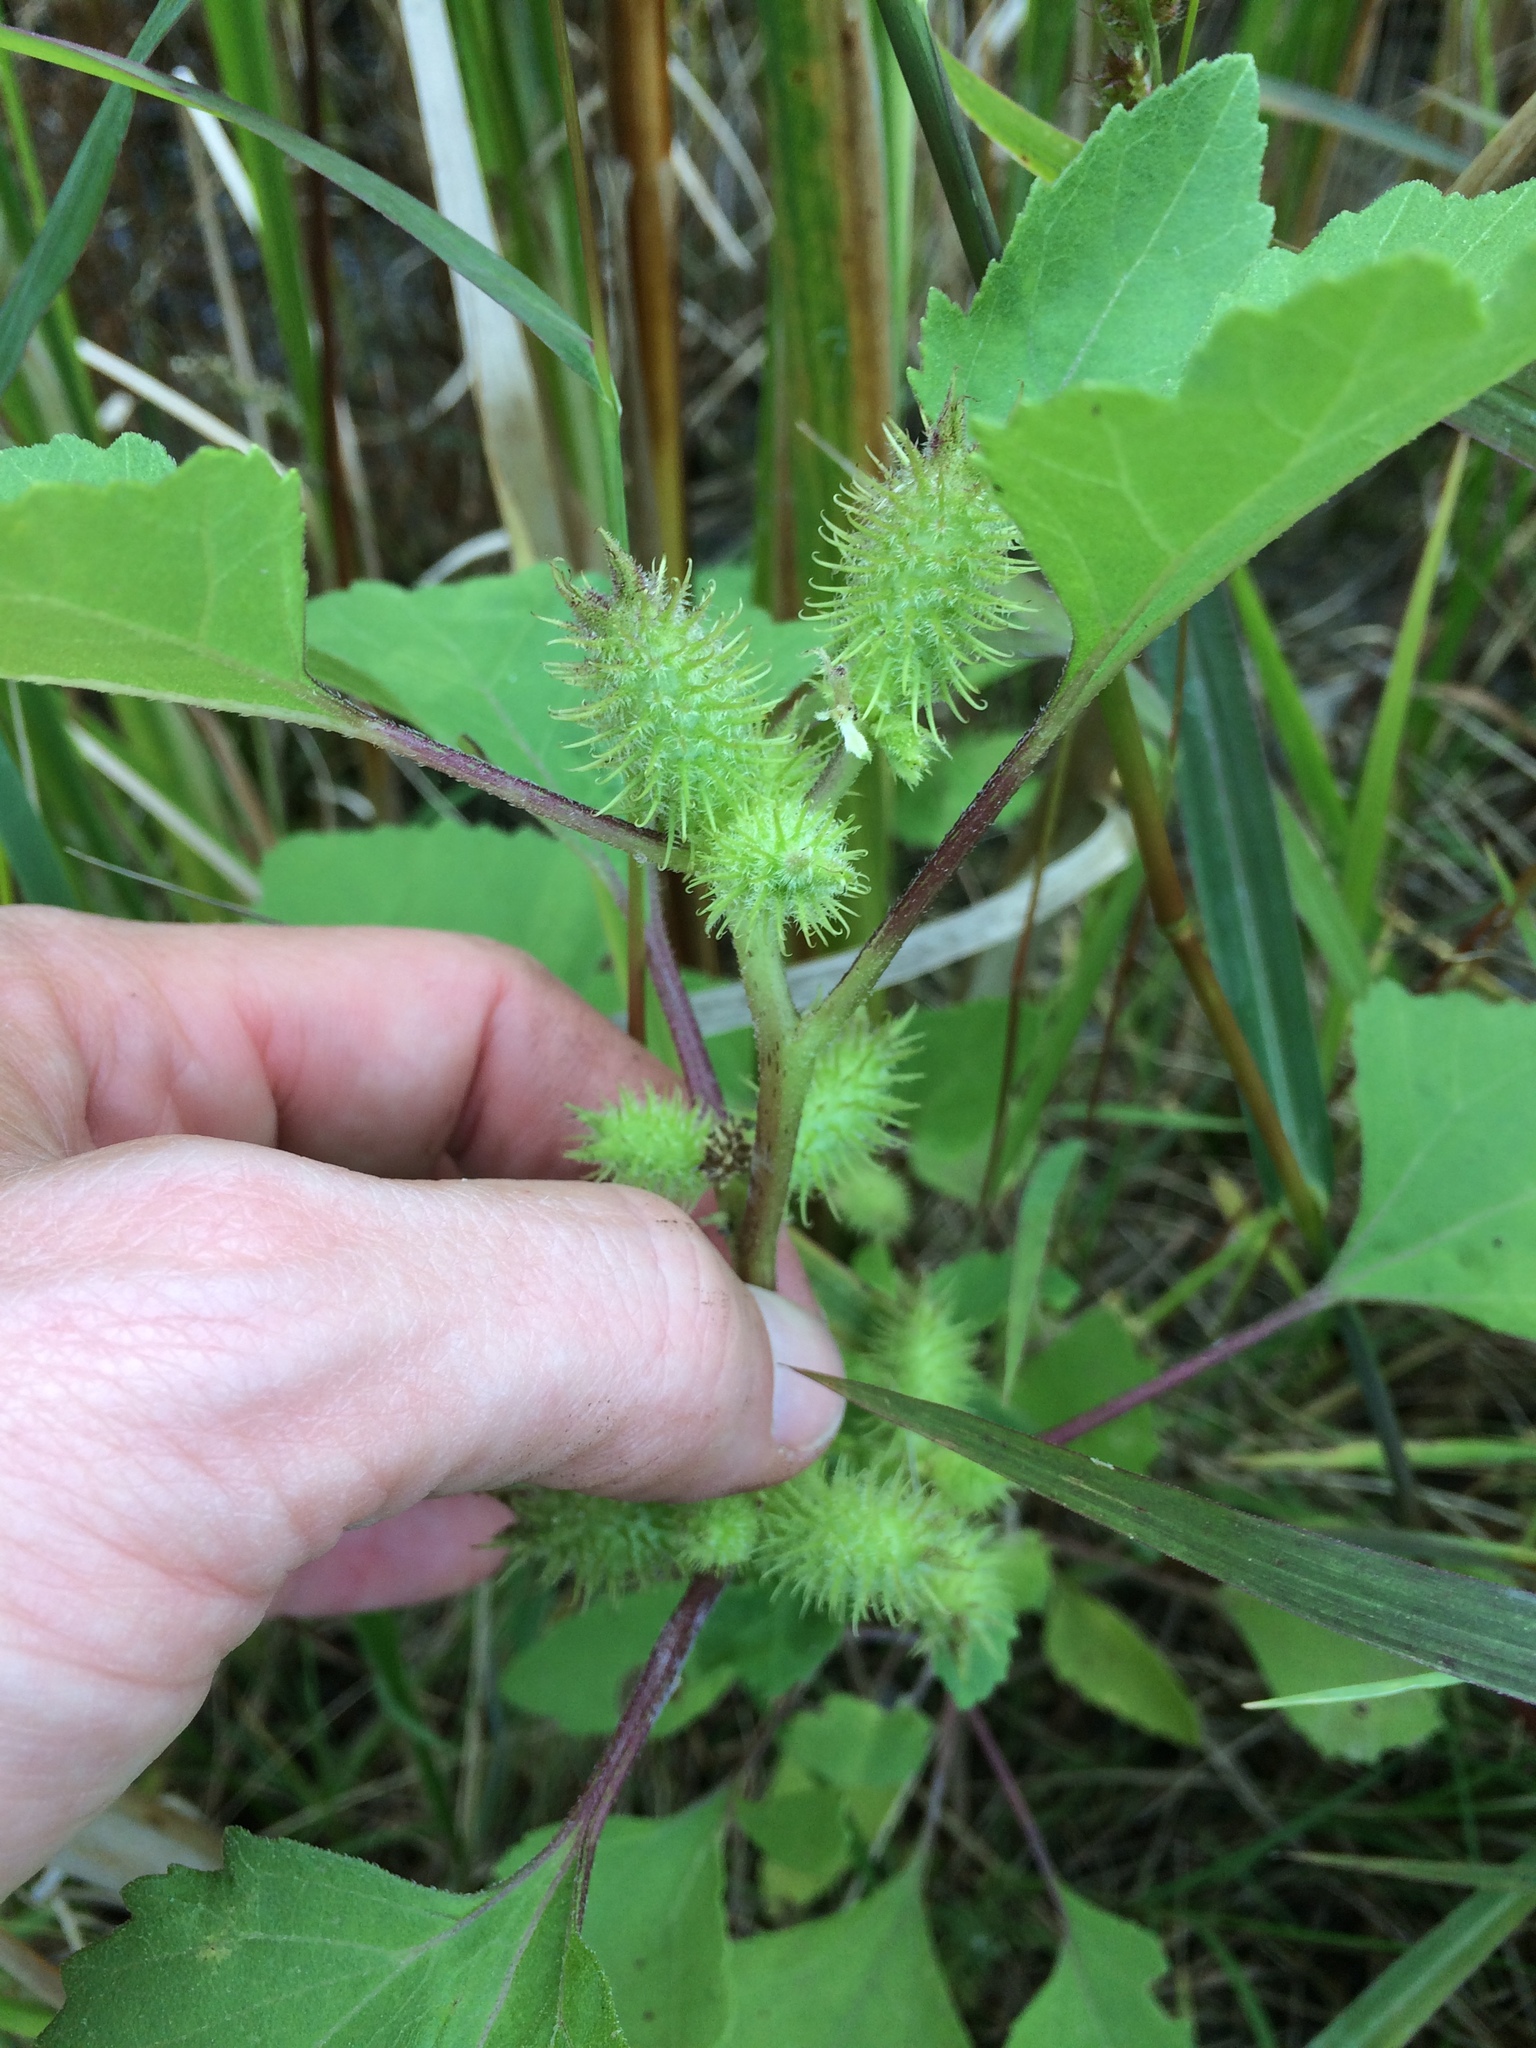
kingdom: Plantae
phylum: Tracheophyta
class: Magnoliopsida
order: Asterales
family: Asteraceae
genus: Xanthium
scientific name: Xanthium strumarium
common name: Rough cocklebur
